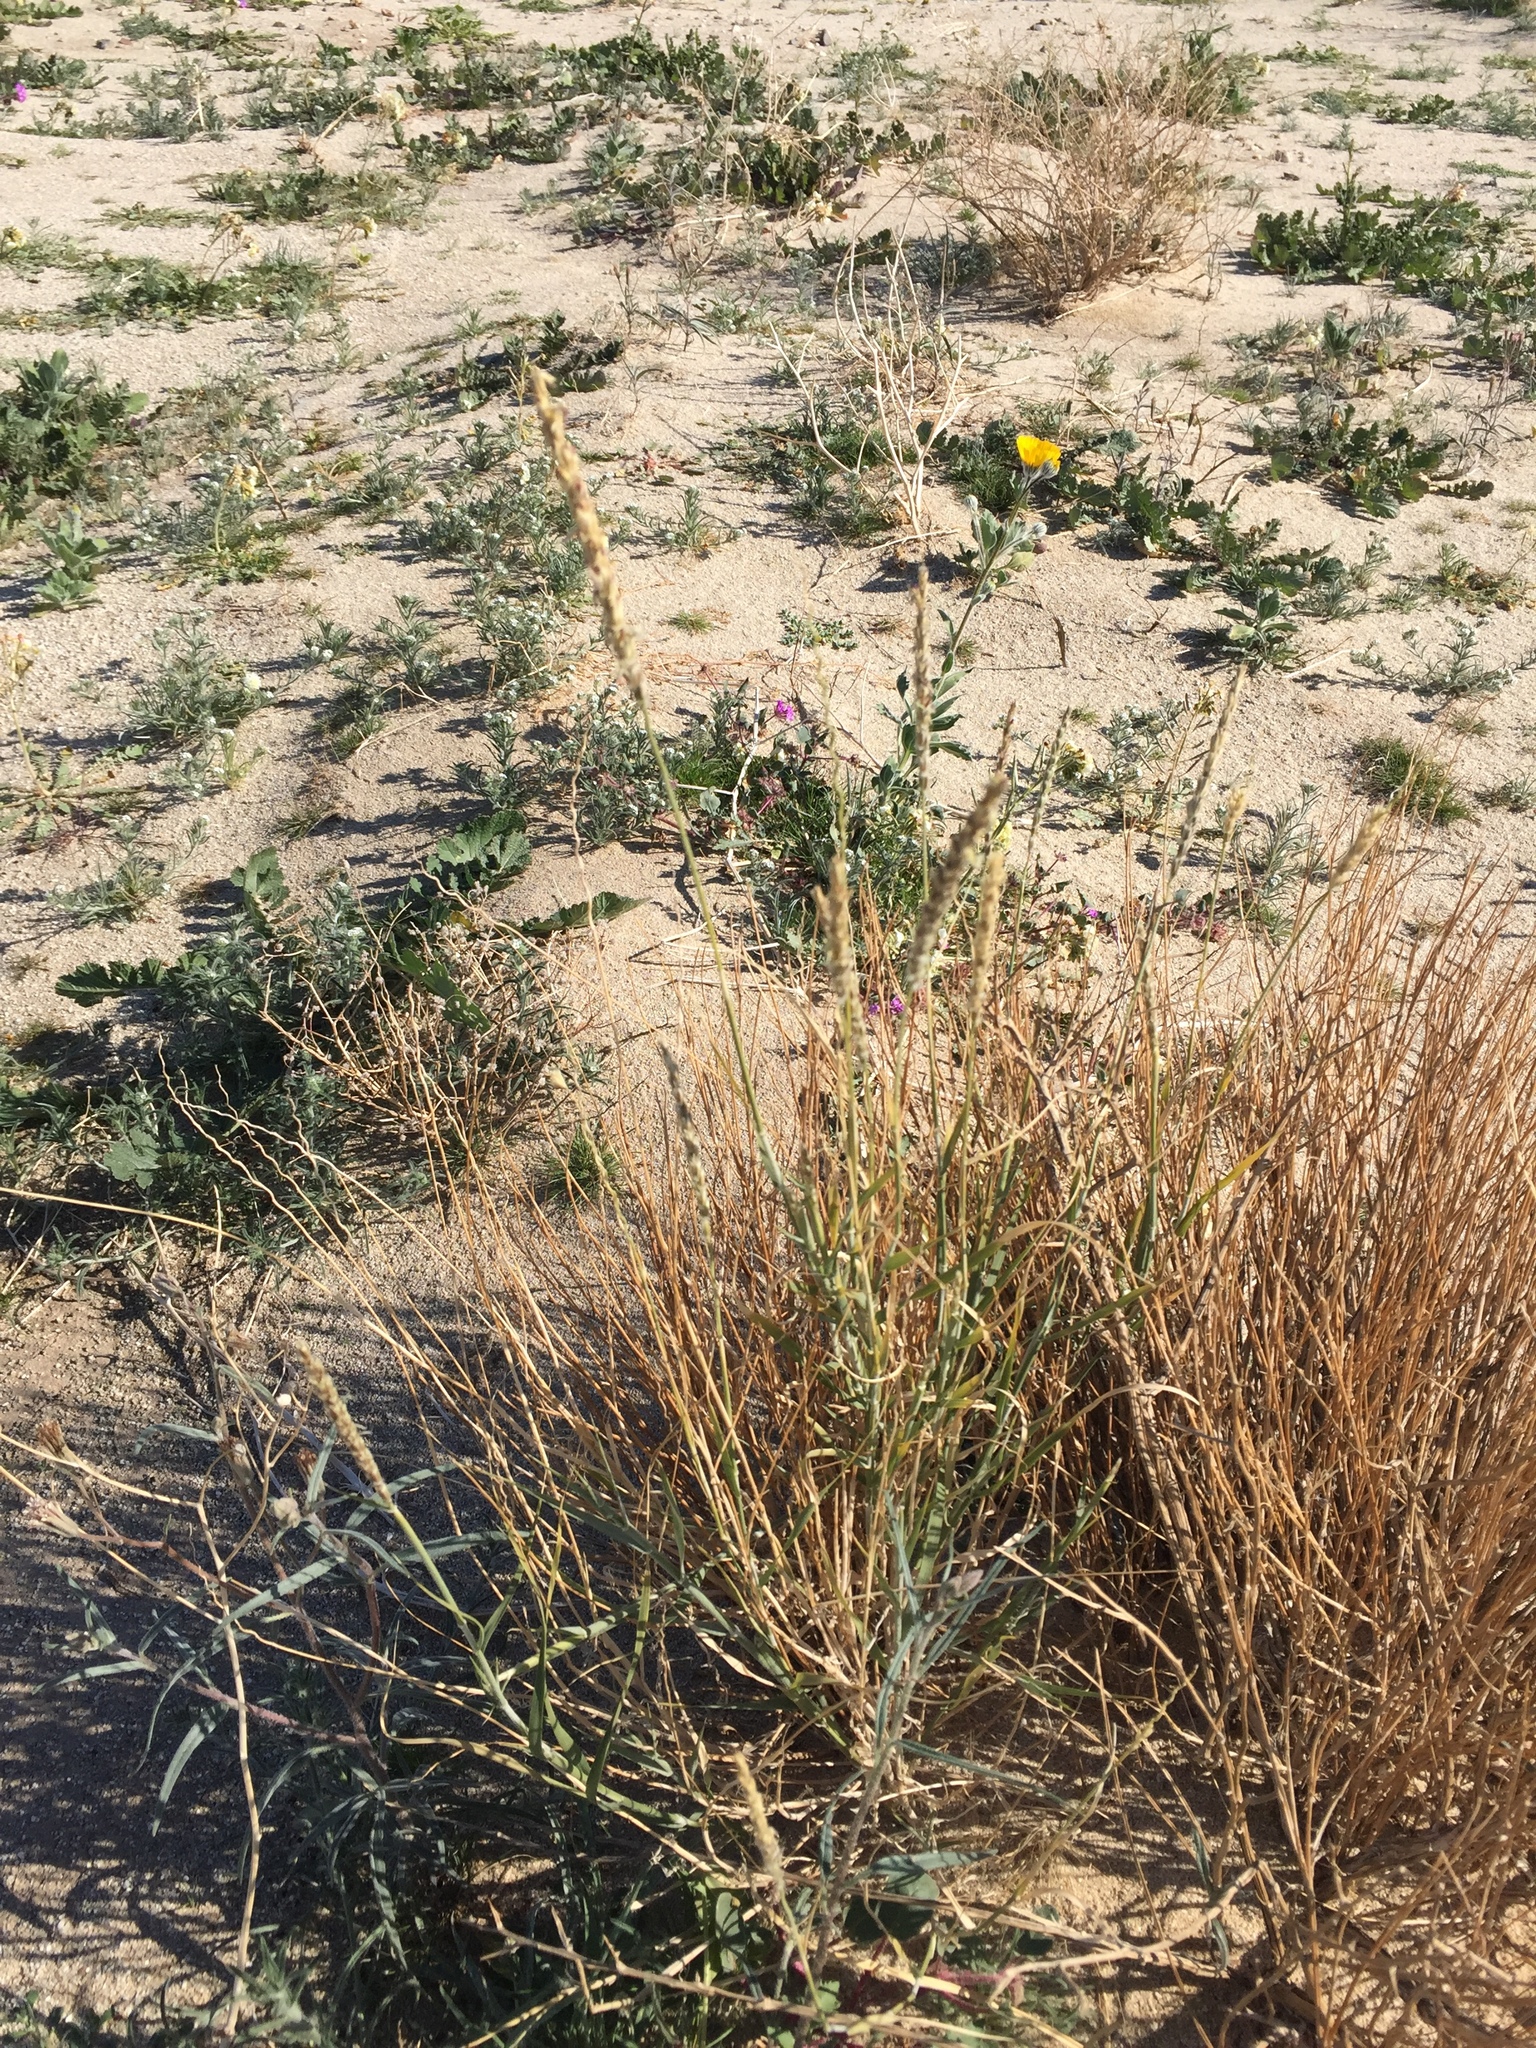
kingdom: Plantae
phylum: Tracheophyta
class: Liliopsida
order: Poales
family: Poaceae
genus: Hilaria
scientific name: Hilaria rigida
